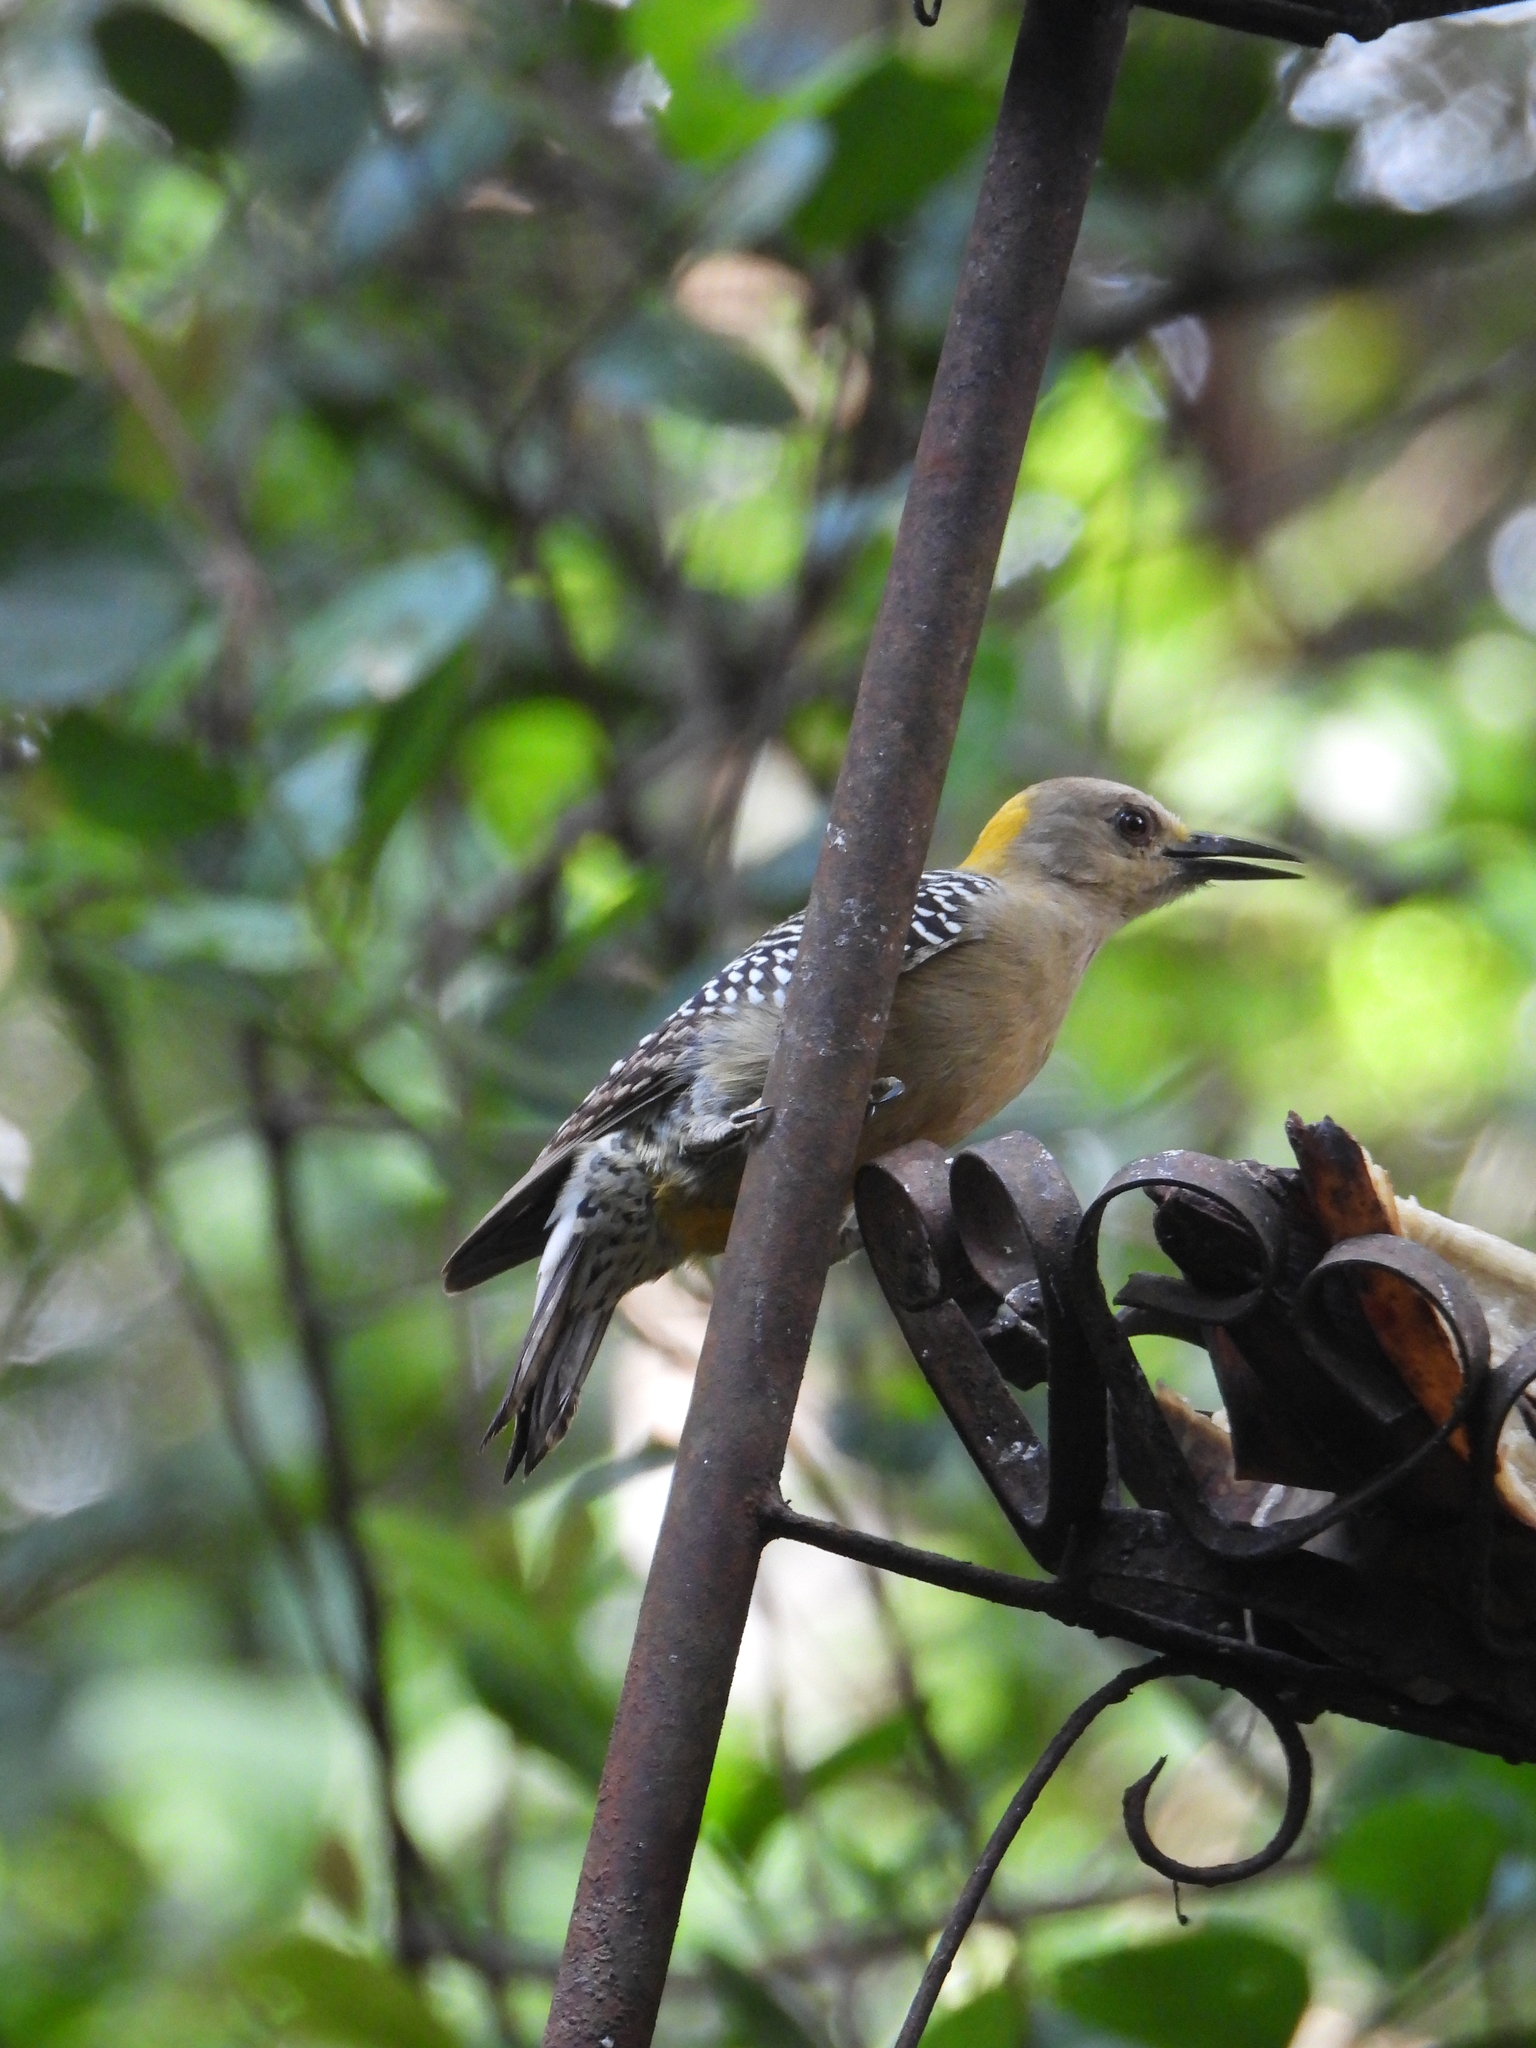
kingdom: Animalia
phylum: Chordata
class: Aves
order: Piciformes
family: Picidae
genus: Melanerpes
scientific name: Melanerpes hoffmannii
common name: Hoffmann's woodpecker
